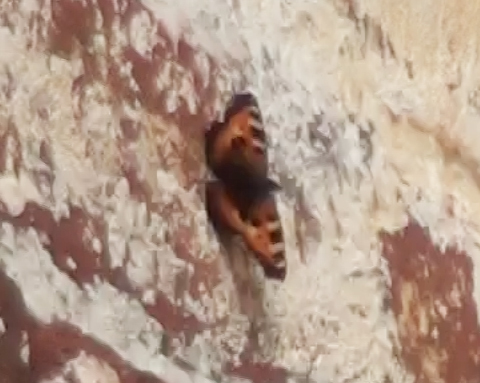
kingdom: Animalia
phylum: Arthropoda
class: Insecta
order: Lepidoptera
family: Nymphalidae
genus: Aglais
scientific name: Aglais urticae
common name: Small tortoiseshell
